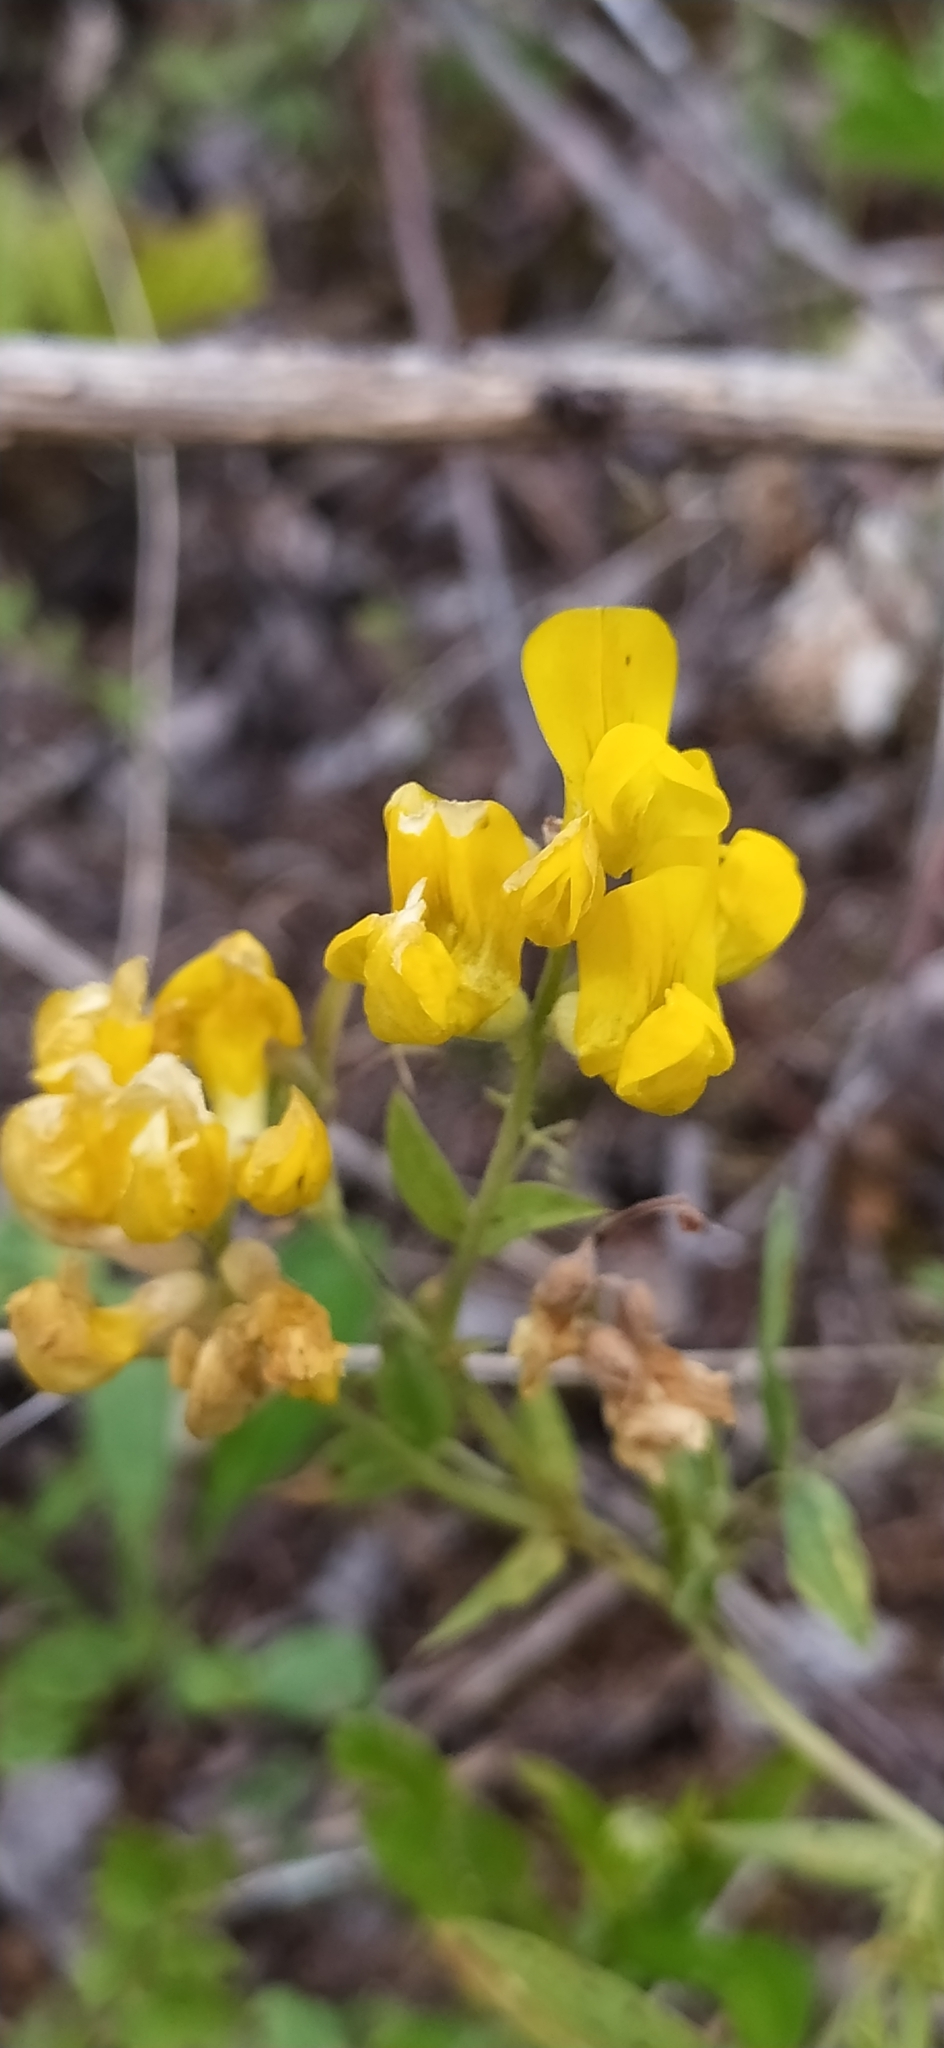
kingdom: Plantae
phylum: Tracheophyta
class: Magnoliopsida
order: Fabales
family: Fabaceae
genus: Lathyrus
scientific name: Lathyrus pratensis
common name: Meadow vetchling
